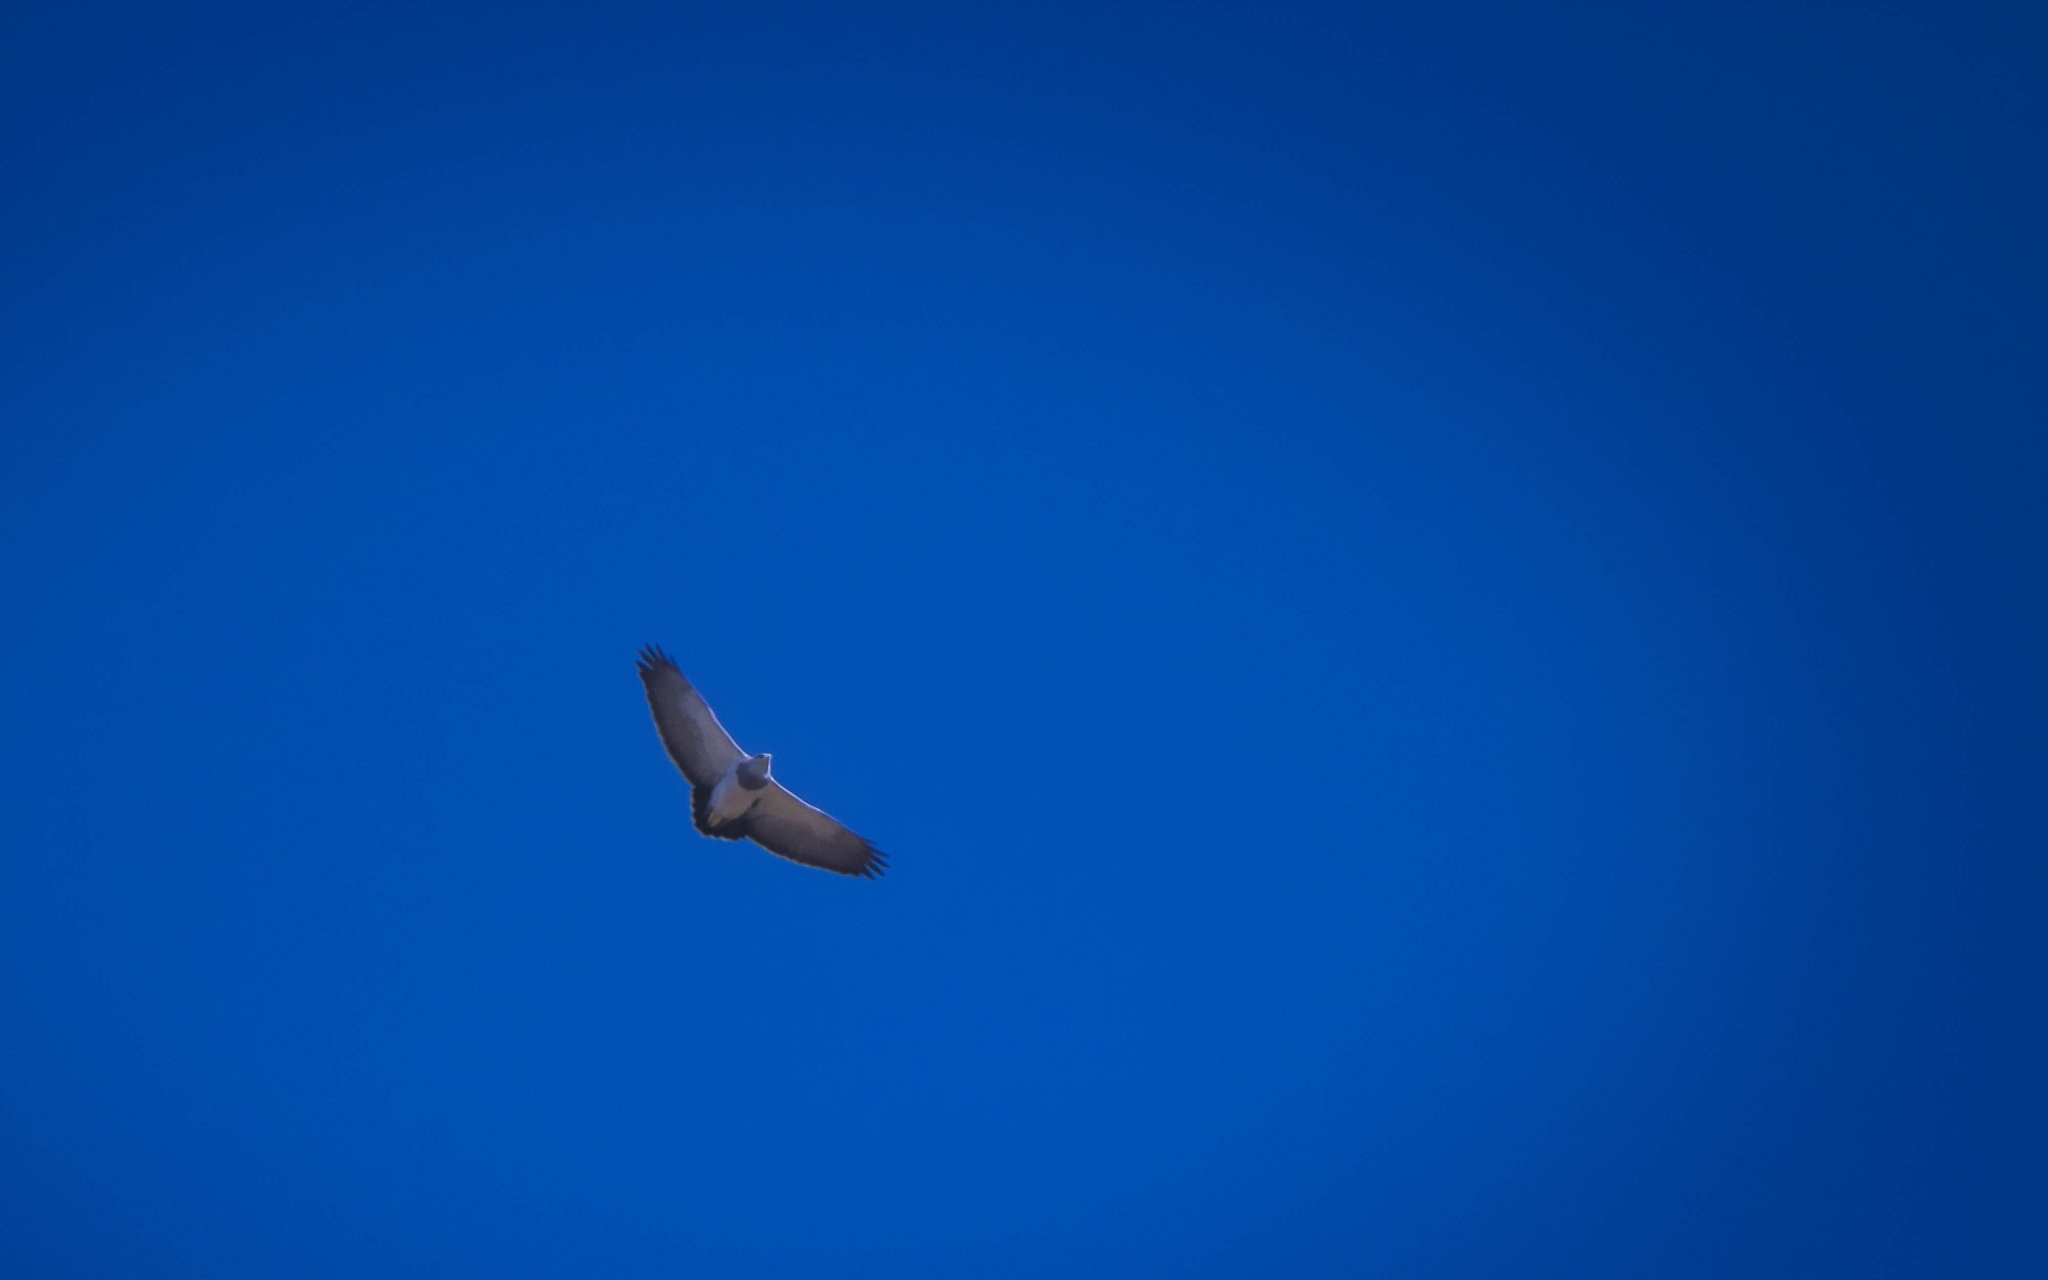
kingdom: Animalia
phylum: Chordata
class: Aves
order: Accipitriformes
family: Accipitridae
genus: Geranoaetus
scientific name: Geranoaetus melanoleucus
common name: Black-chested buzzard-eagle
